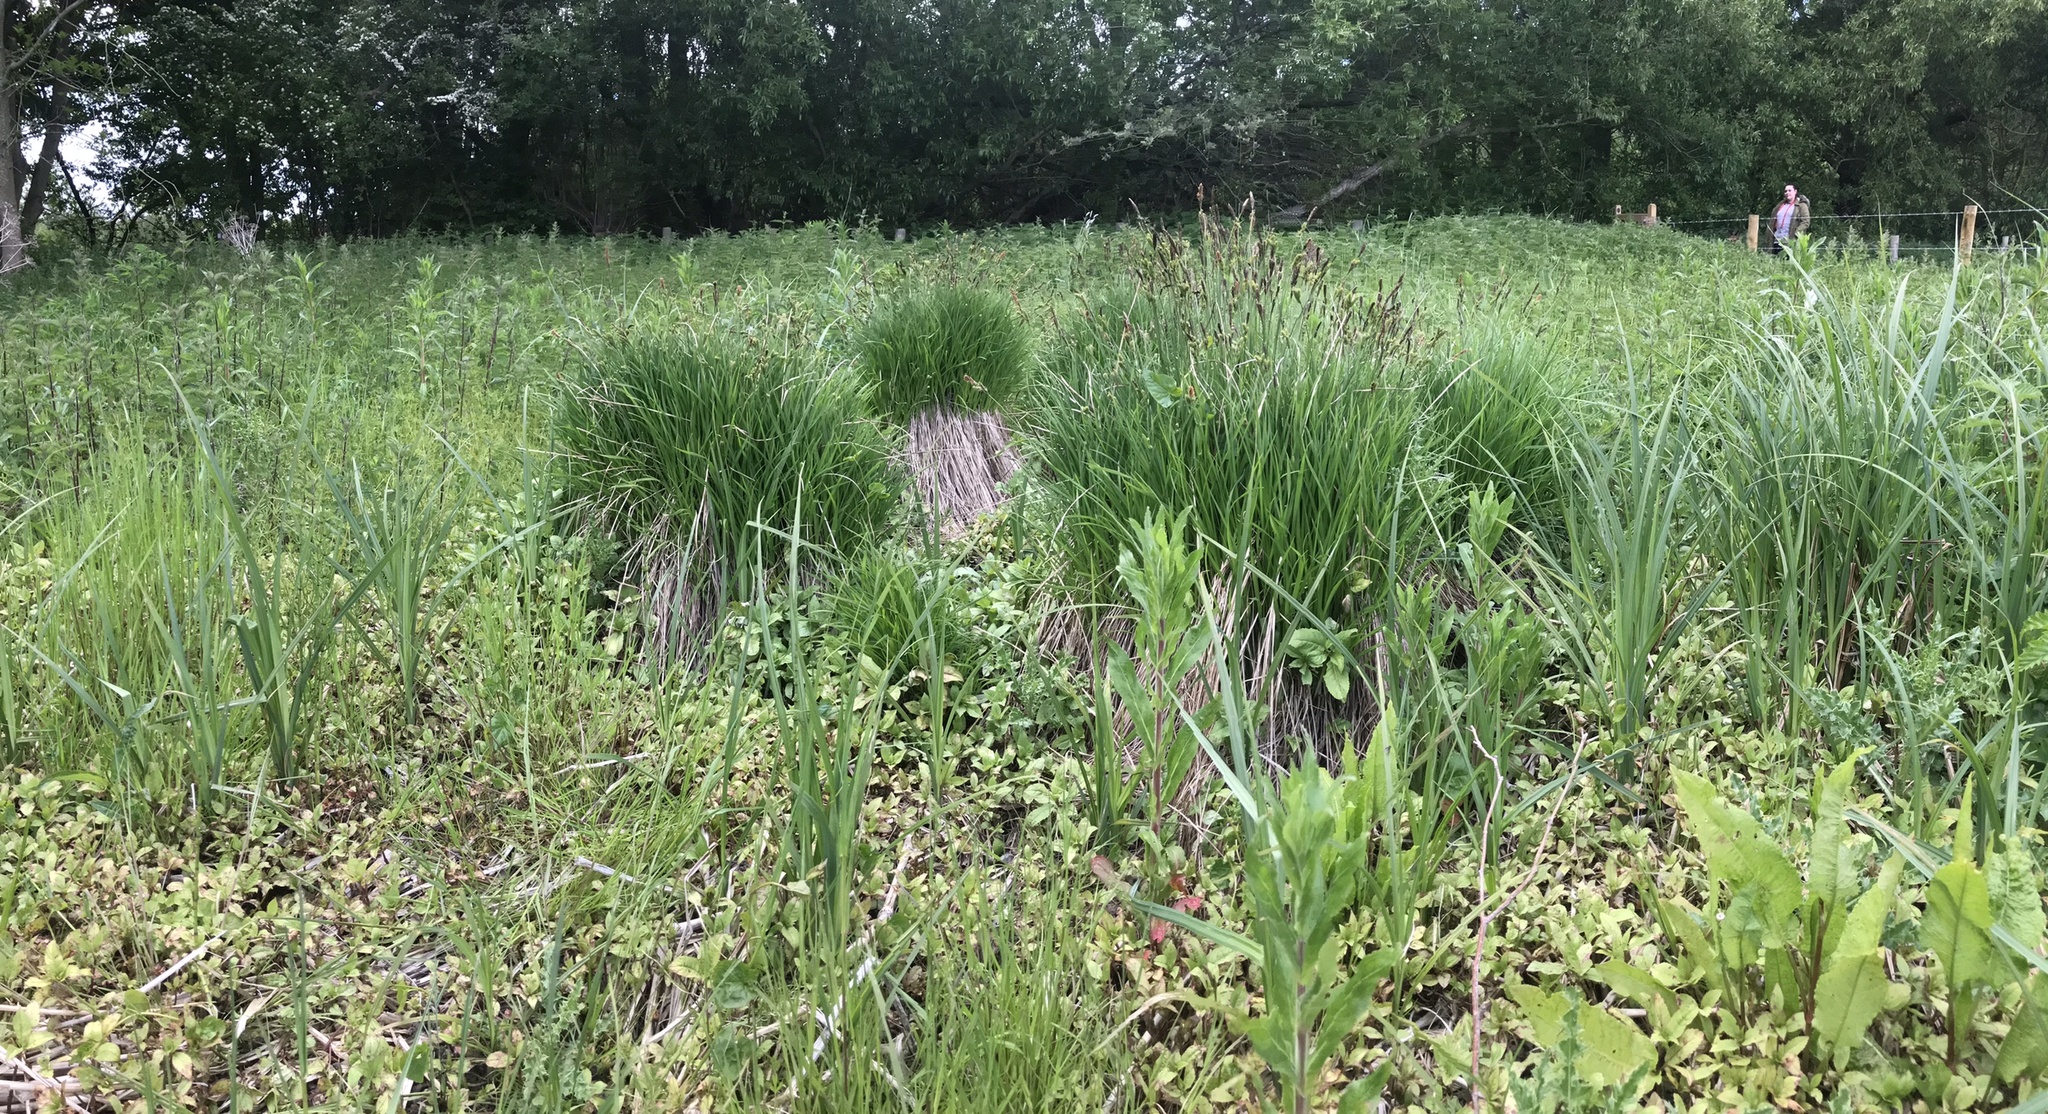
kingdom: Plantae
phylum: Tracheophyta
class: Liliopsida
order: Poales
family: Cyperaceae
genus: Carex
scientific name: Carex cespitosa
